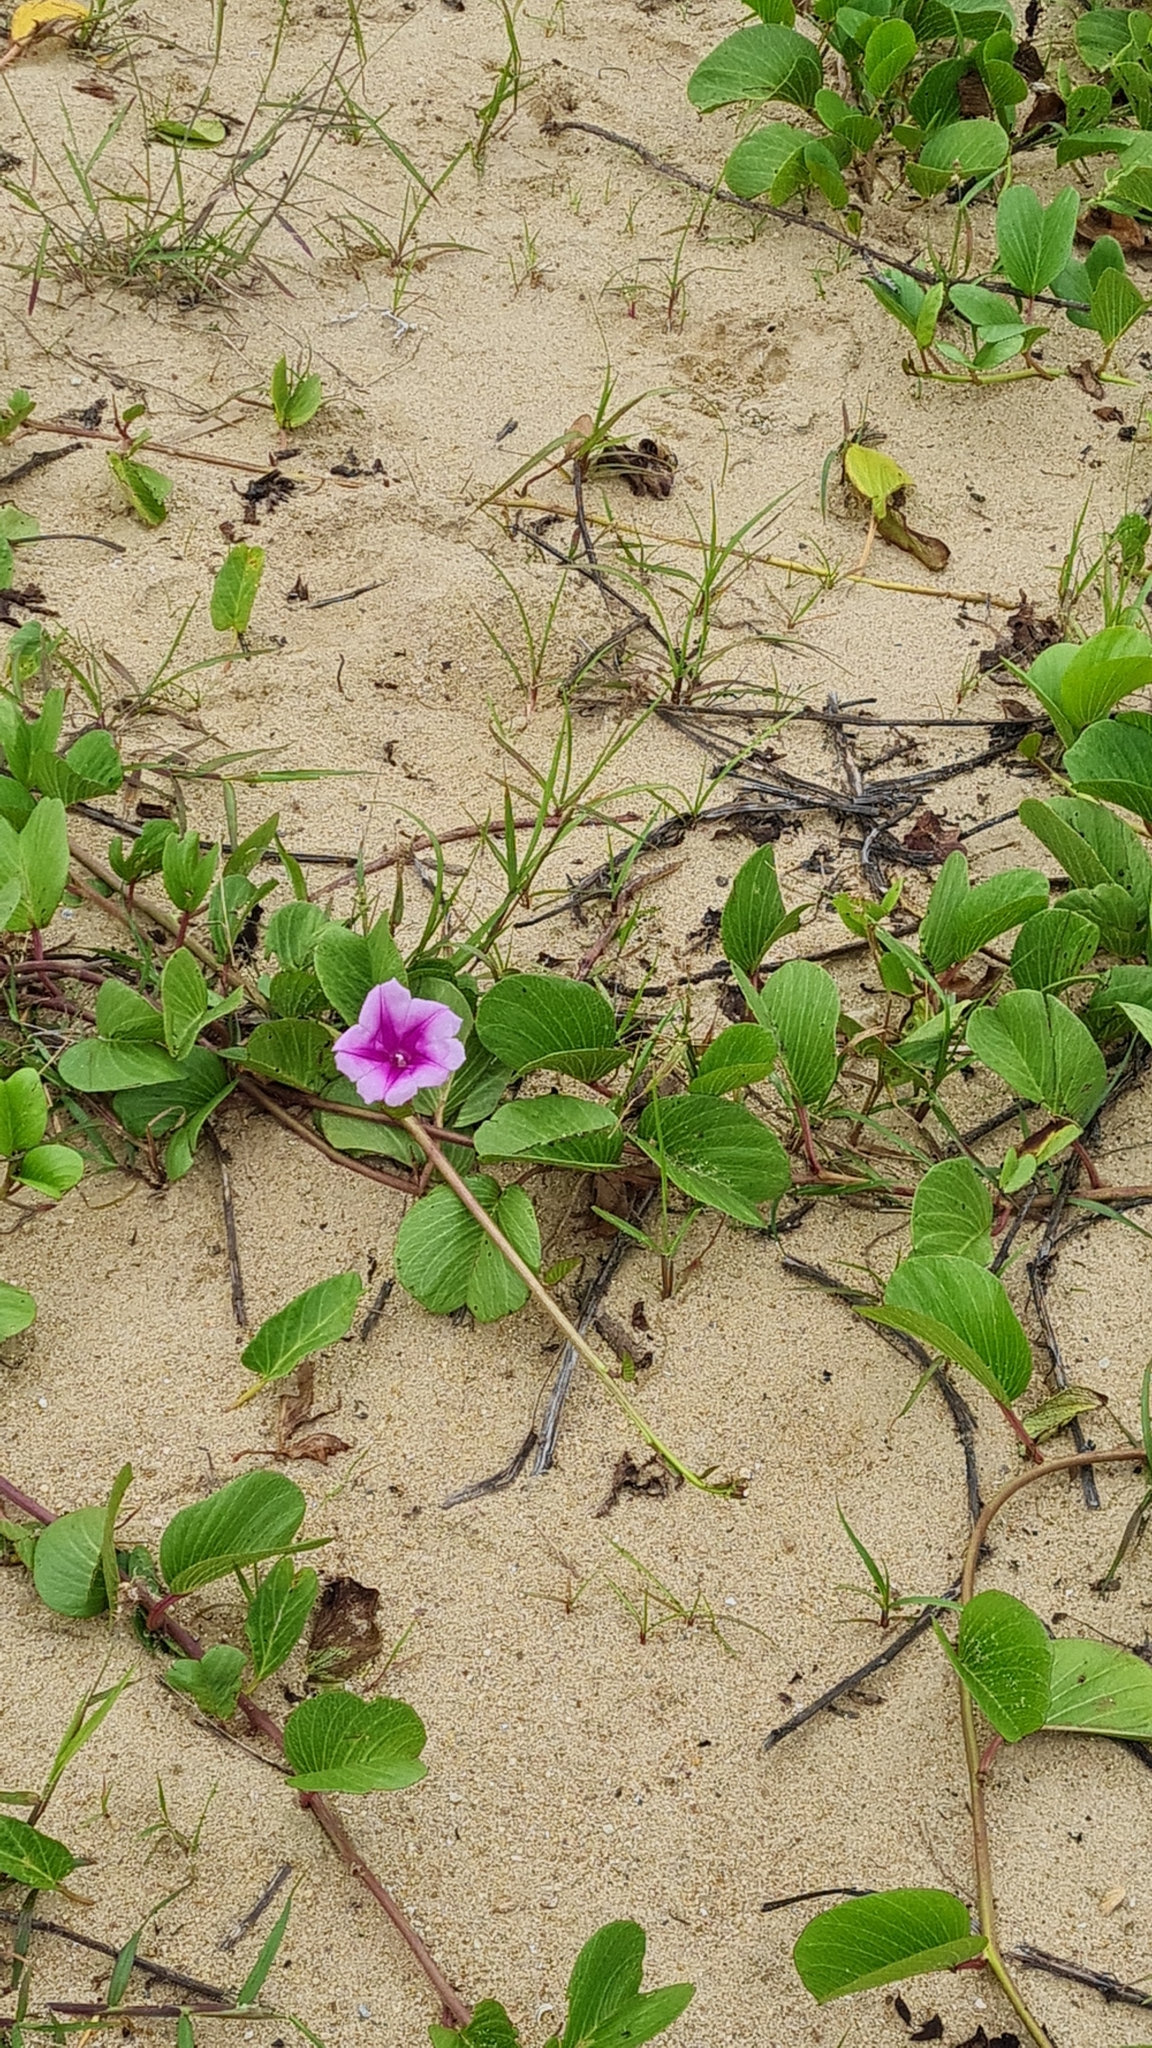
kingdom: Plantae
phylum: Tracheophyta
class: Magnoliopsida
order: Solanales
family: Convolvulaceae
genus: Ipomoea
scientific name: Ipomoea pes-caprae
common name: Beach morning glory
